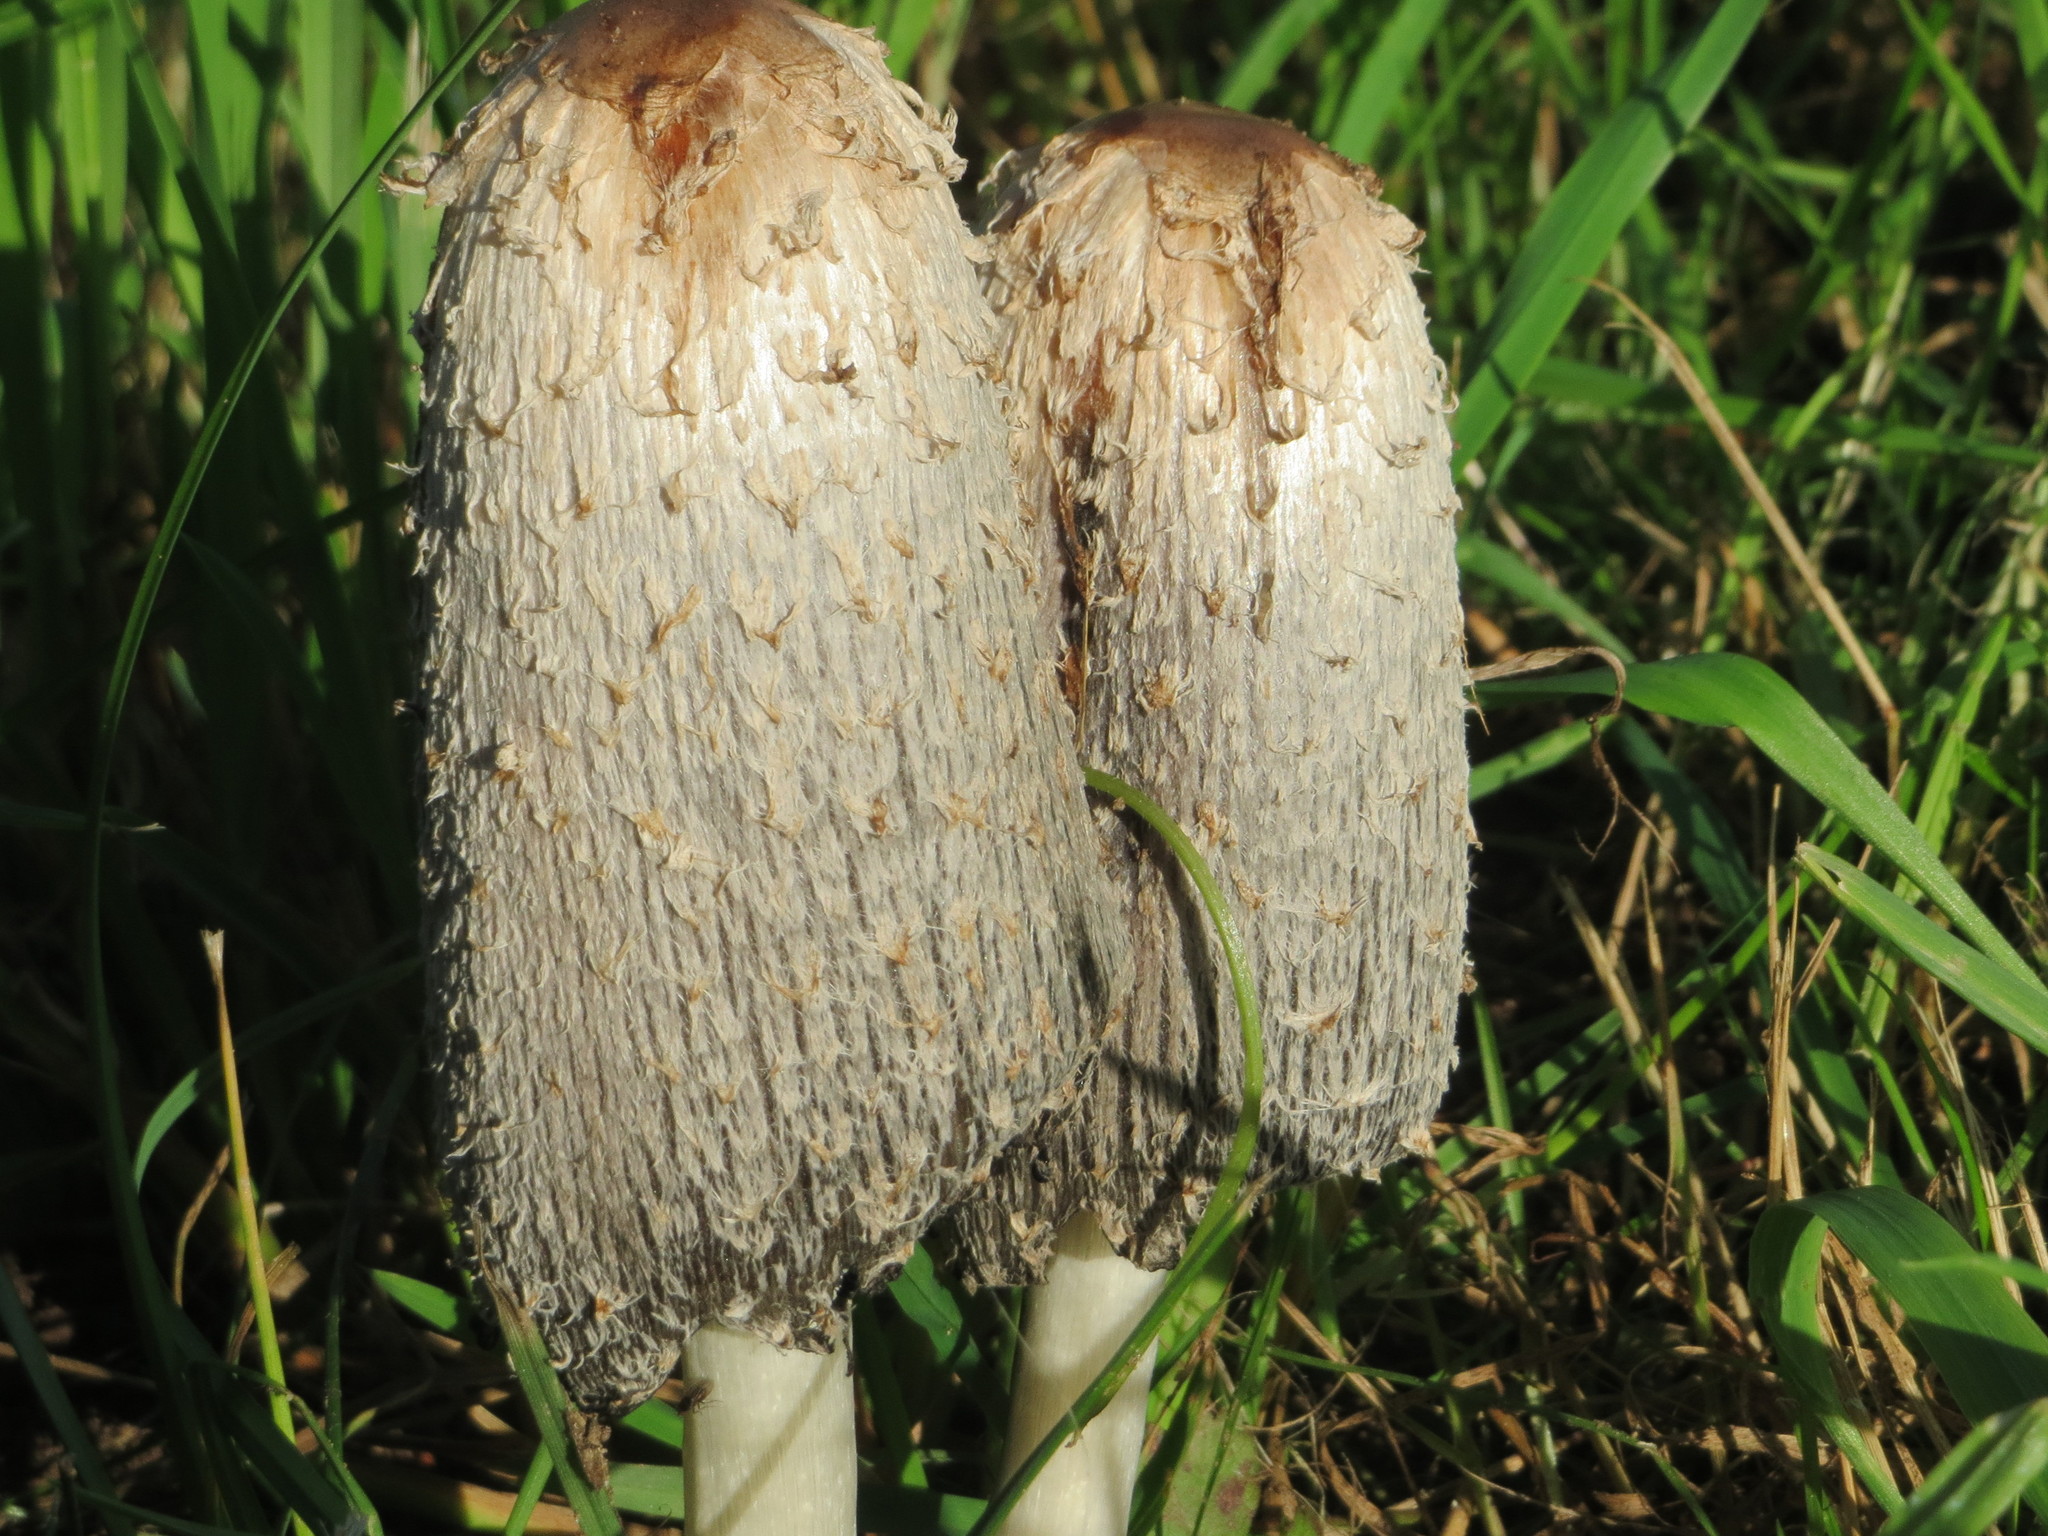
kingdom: Fungi
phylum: Basidiomycota
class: Agaricomycetes
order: Agaricales
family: Agaricaceae
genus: Coprinus
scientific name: Coprinus comatus
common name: Lawyer's wig
